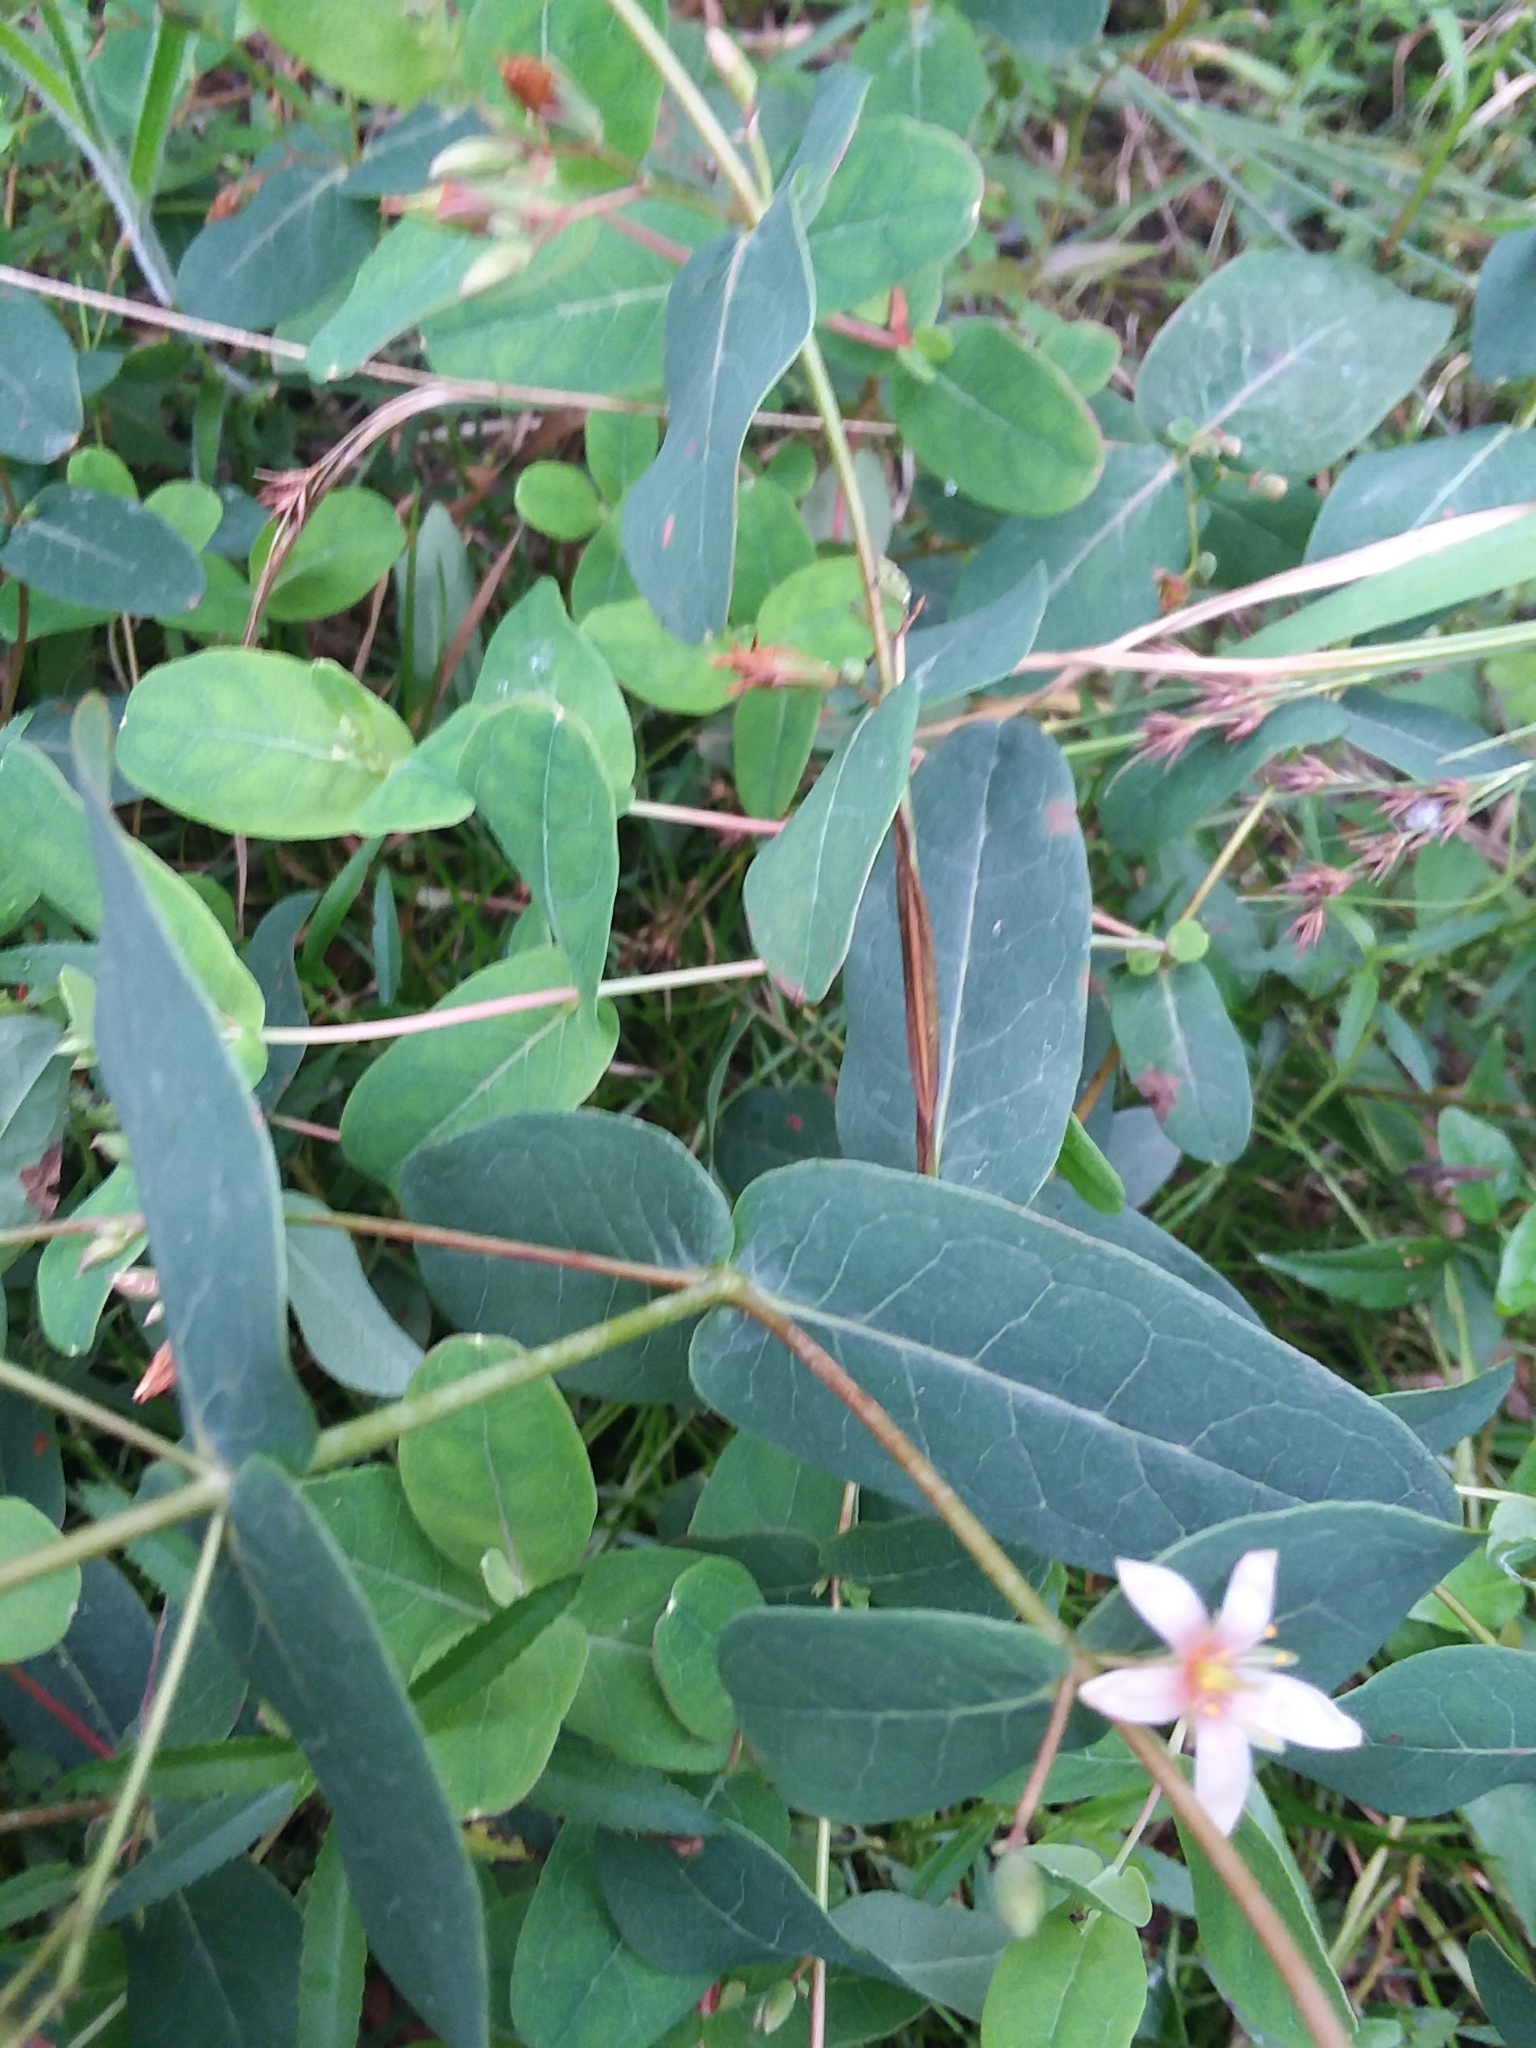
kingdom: Plantae
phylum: Tracheophyta
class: Magnoliopsida
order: Malpighiales
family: Hypericaceae
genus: Triadenum
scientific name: Triadenum virginicum
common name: Marsh st. john's-wort
